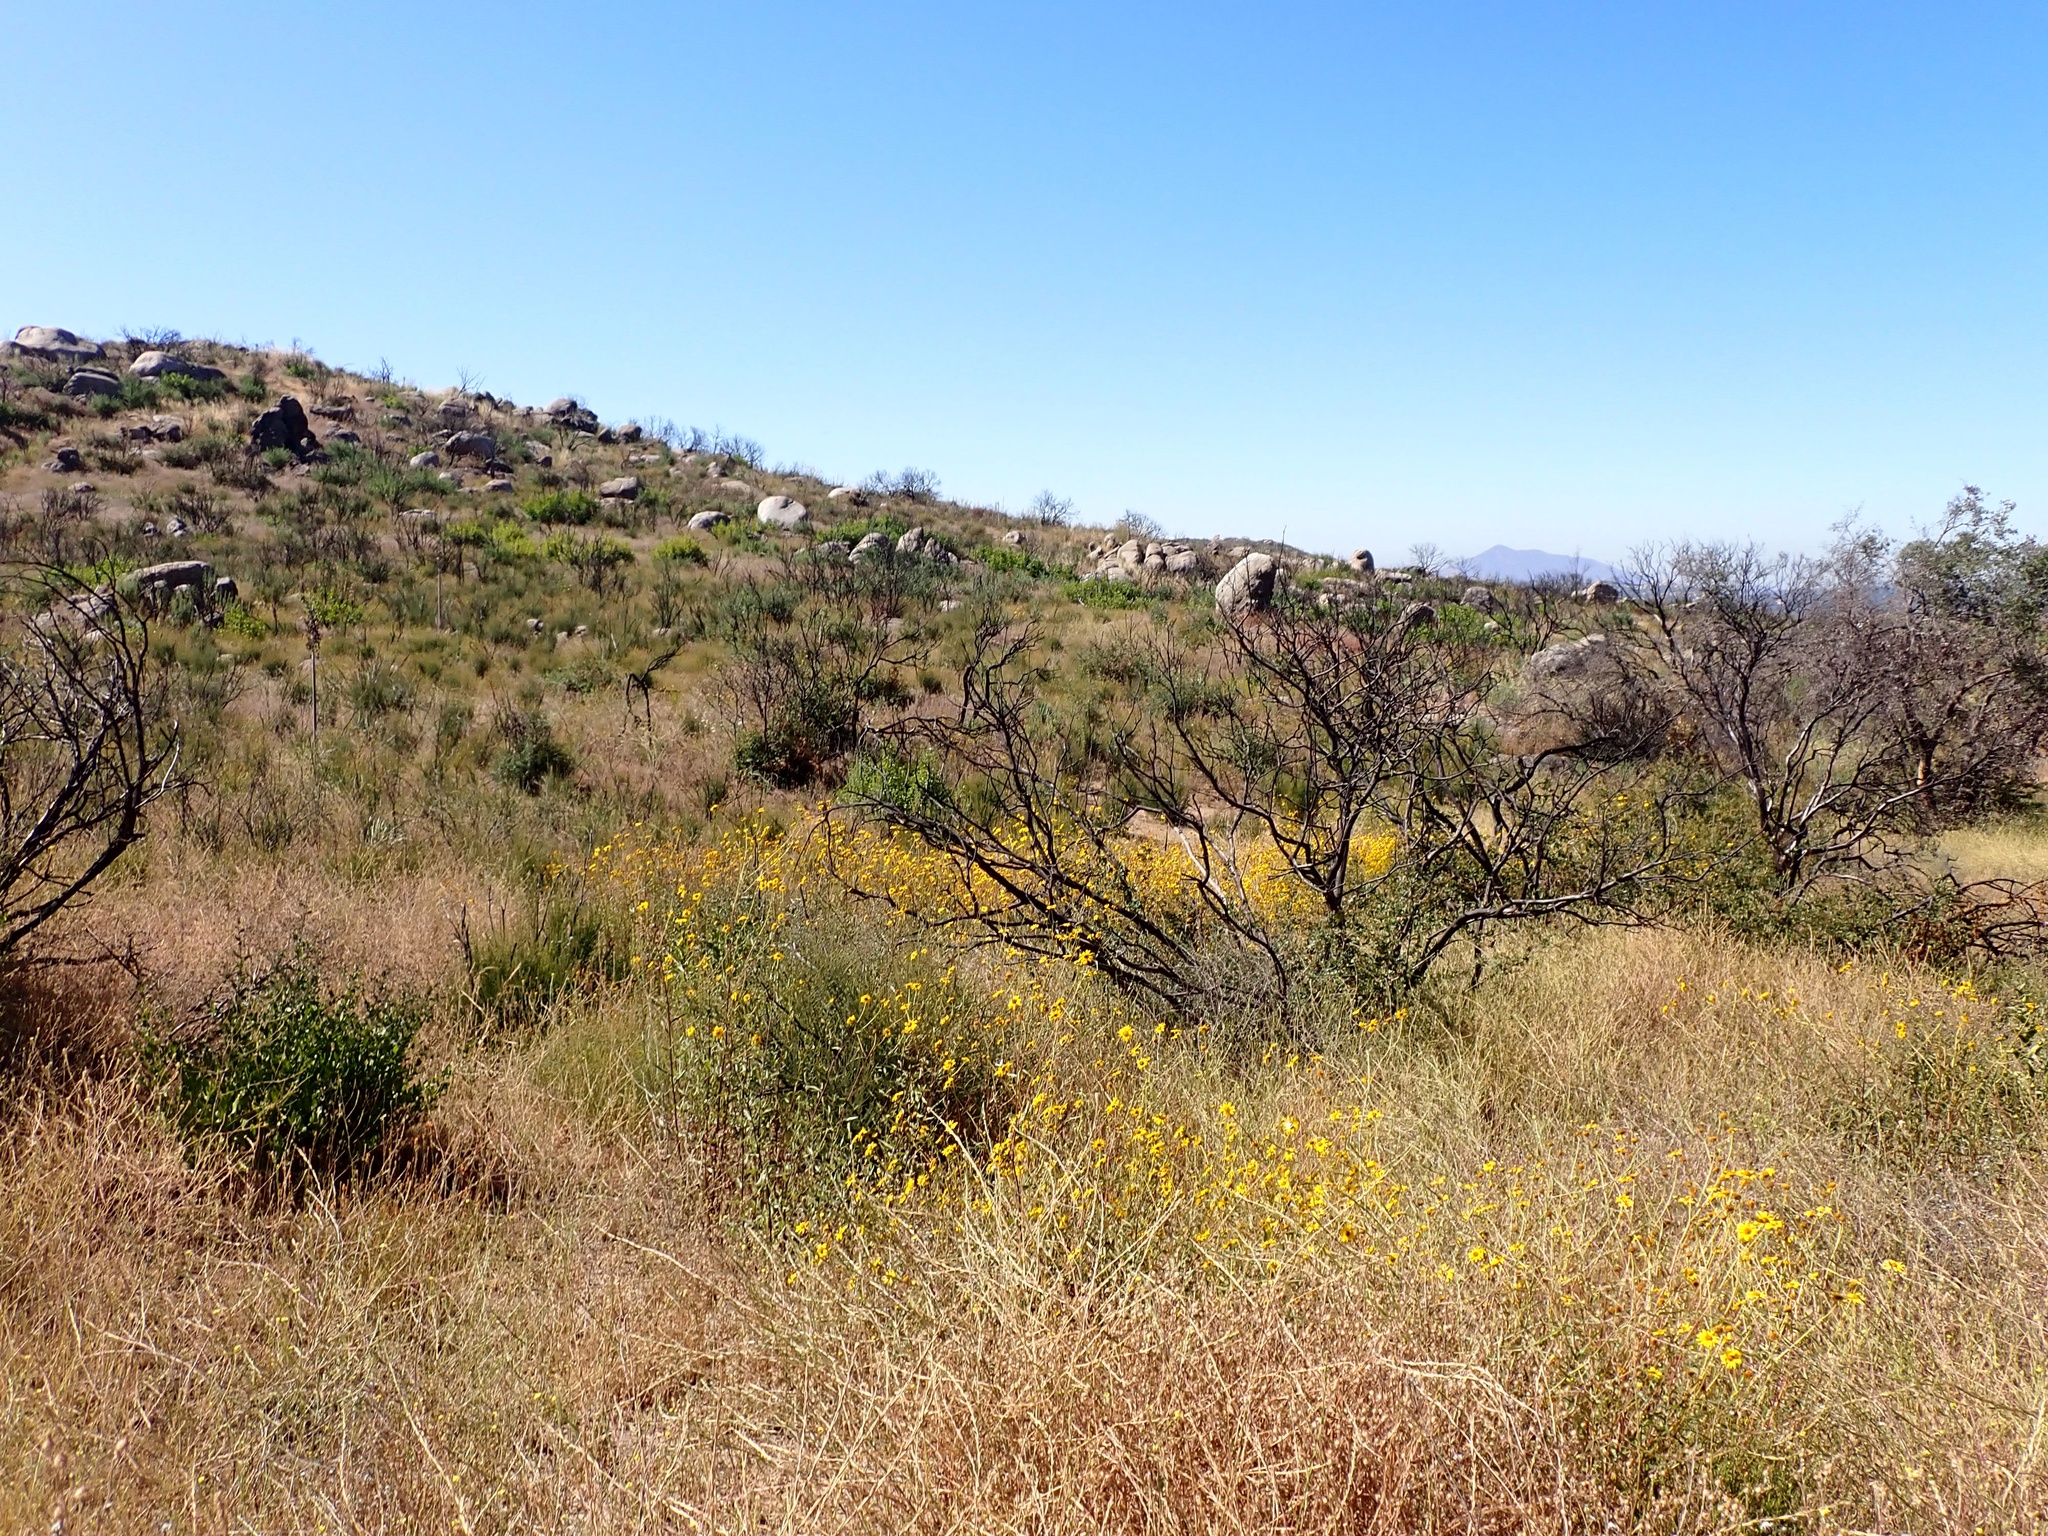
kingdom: Plantae
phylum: Tracheophyta
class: Magnoliopsida
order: Asterales
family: Asteraceae
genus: Helianthus
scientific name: Helianthus gracilentus
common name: Slender sunflower
